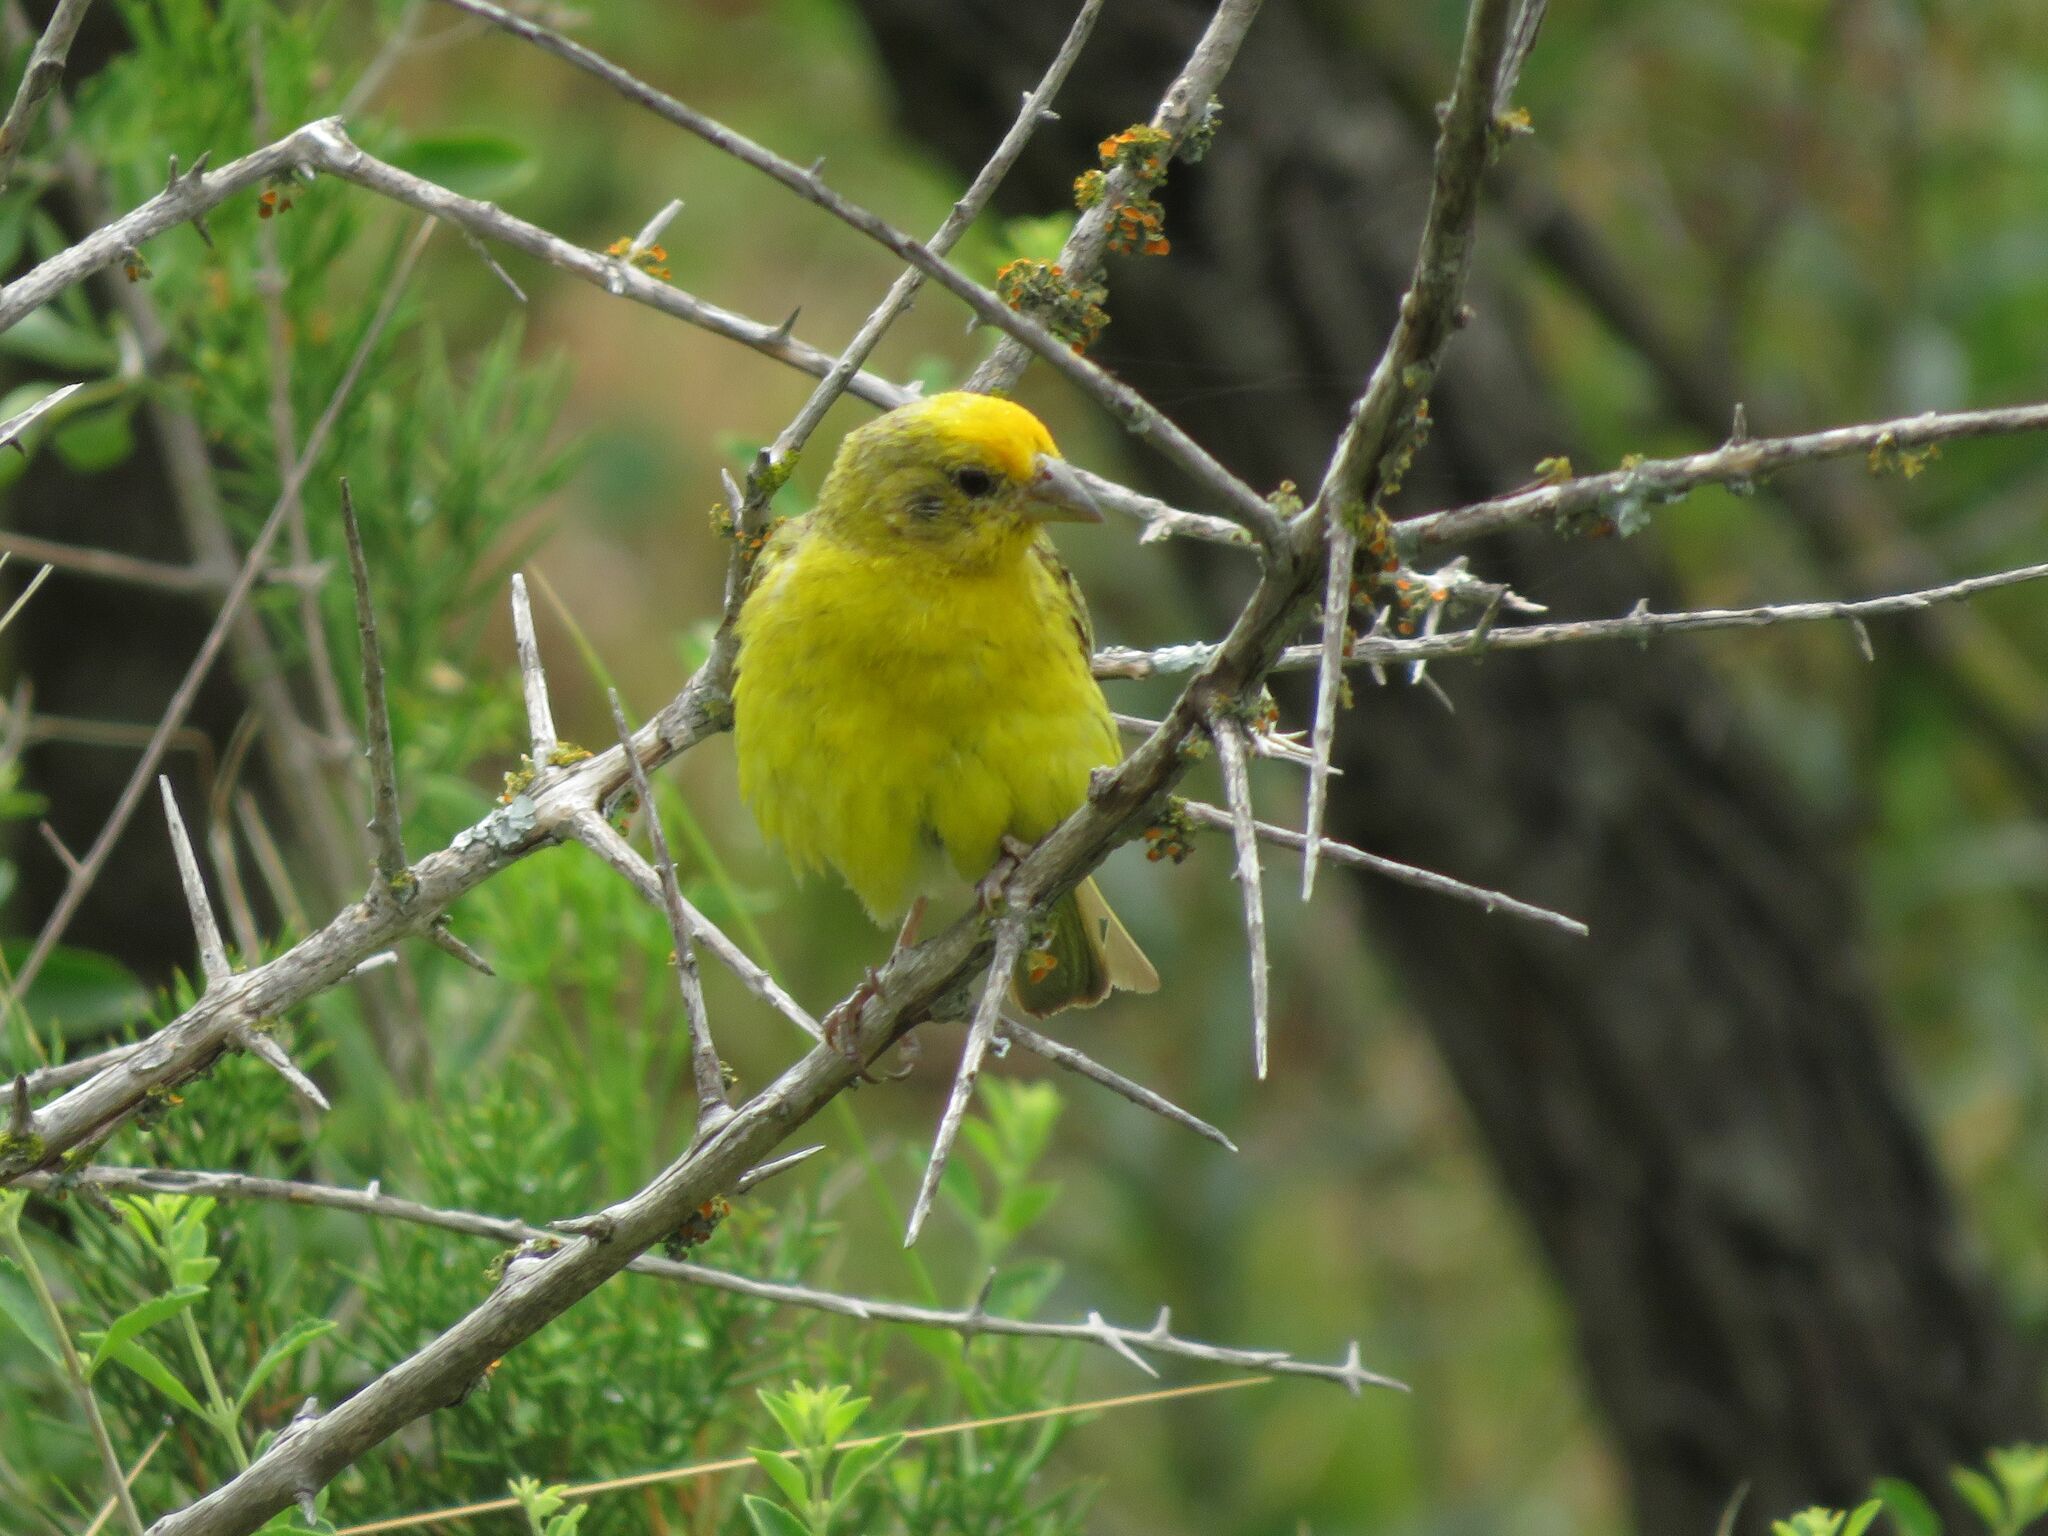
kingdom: Animalia
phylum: Chordata
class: Aves
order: Passeriformes
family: Thraupidae
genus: Sicalis
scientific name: Sicalis flaveola
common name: Saffron finch
